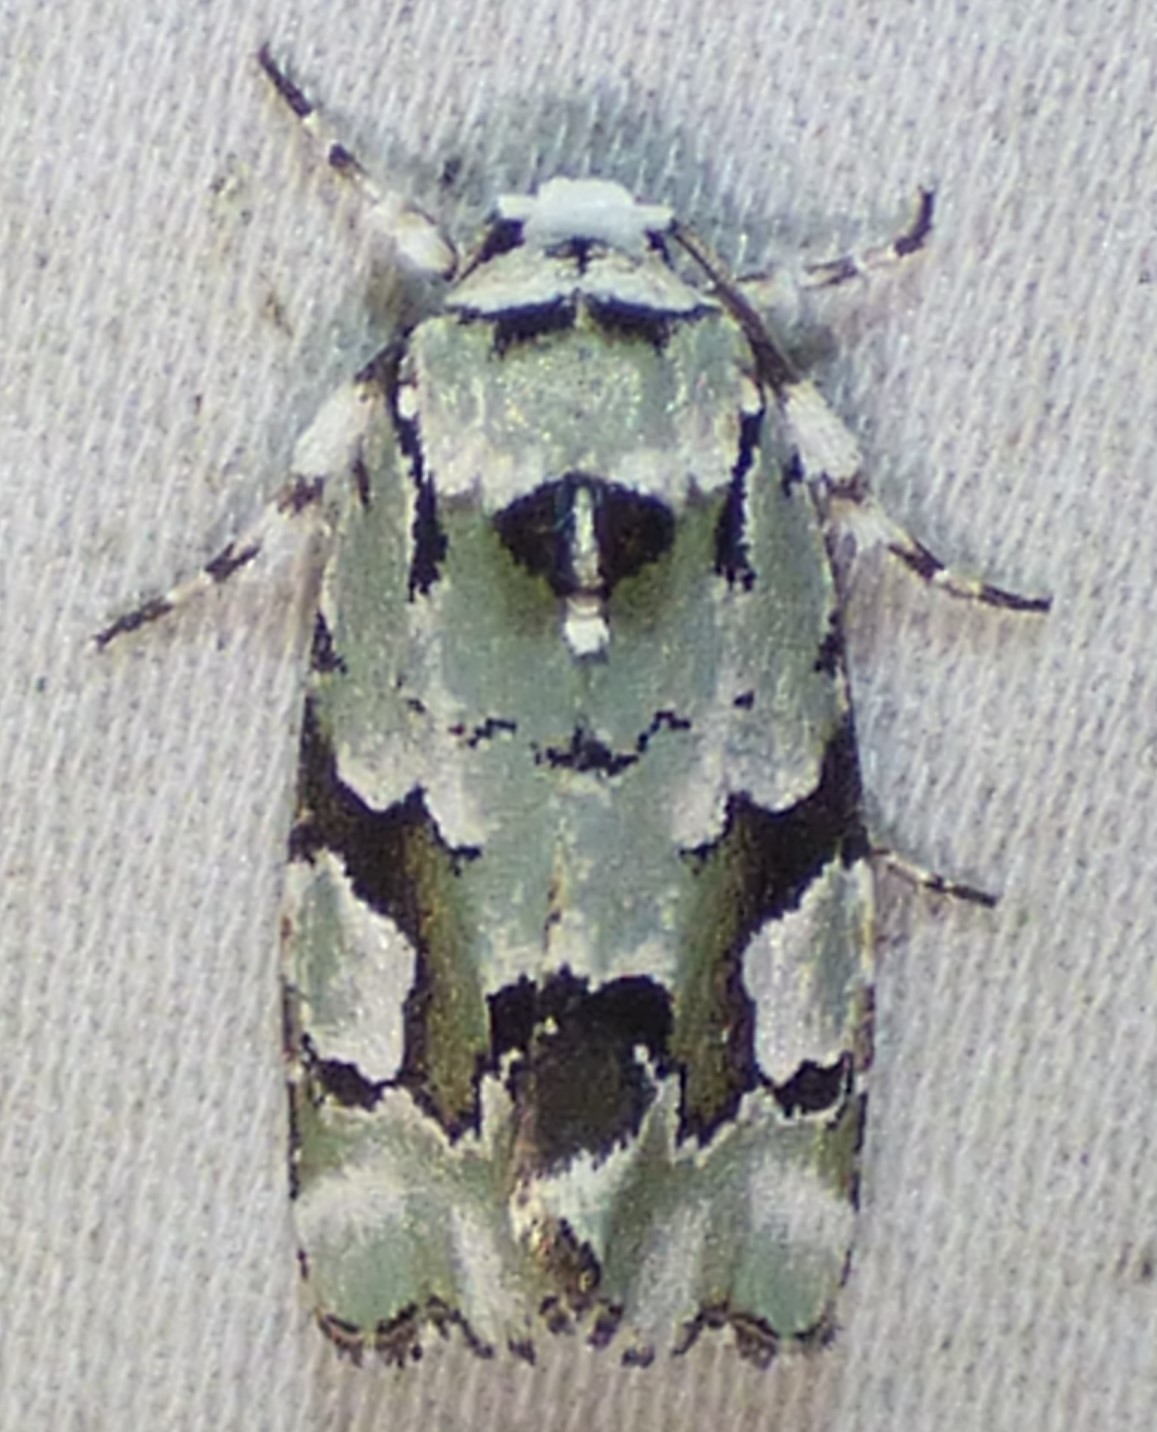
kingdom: Animalia
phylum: Arthropoda
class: Insecta
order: Lepidoptera
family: Noctuidae
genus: Emarginea
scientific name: Emarginea percara
